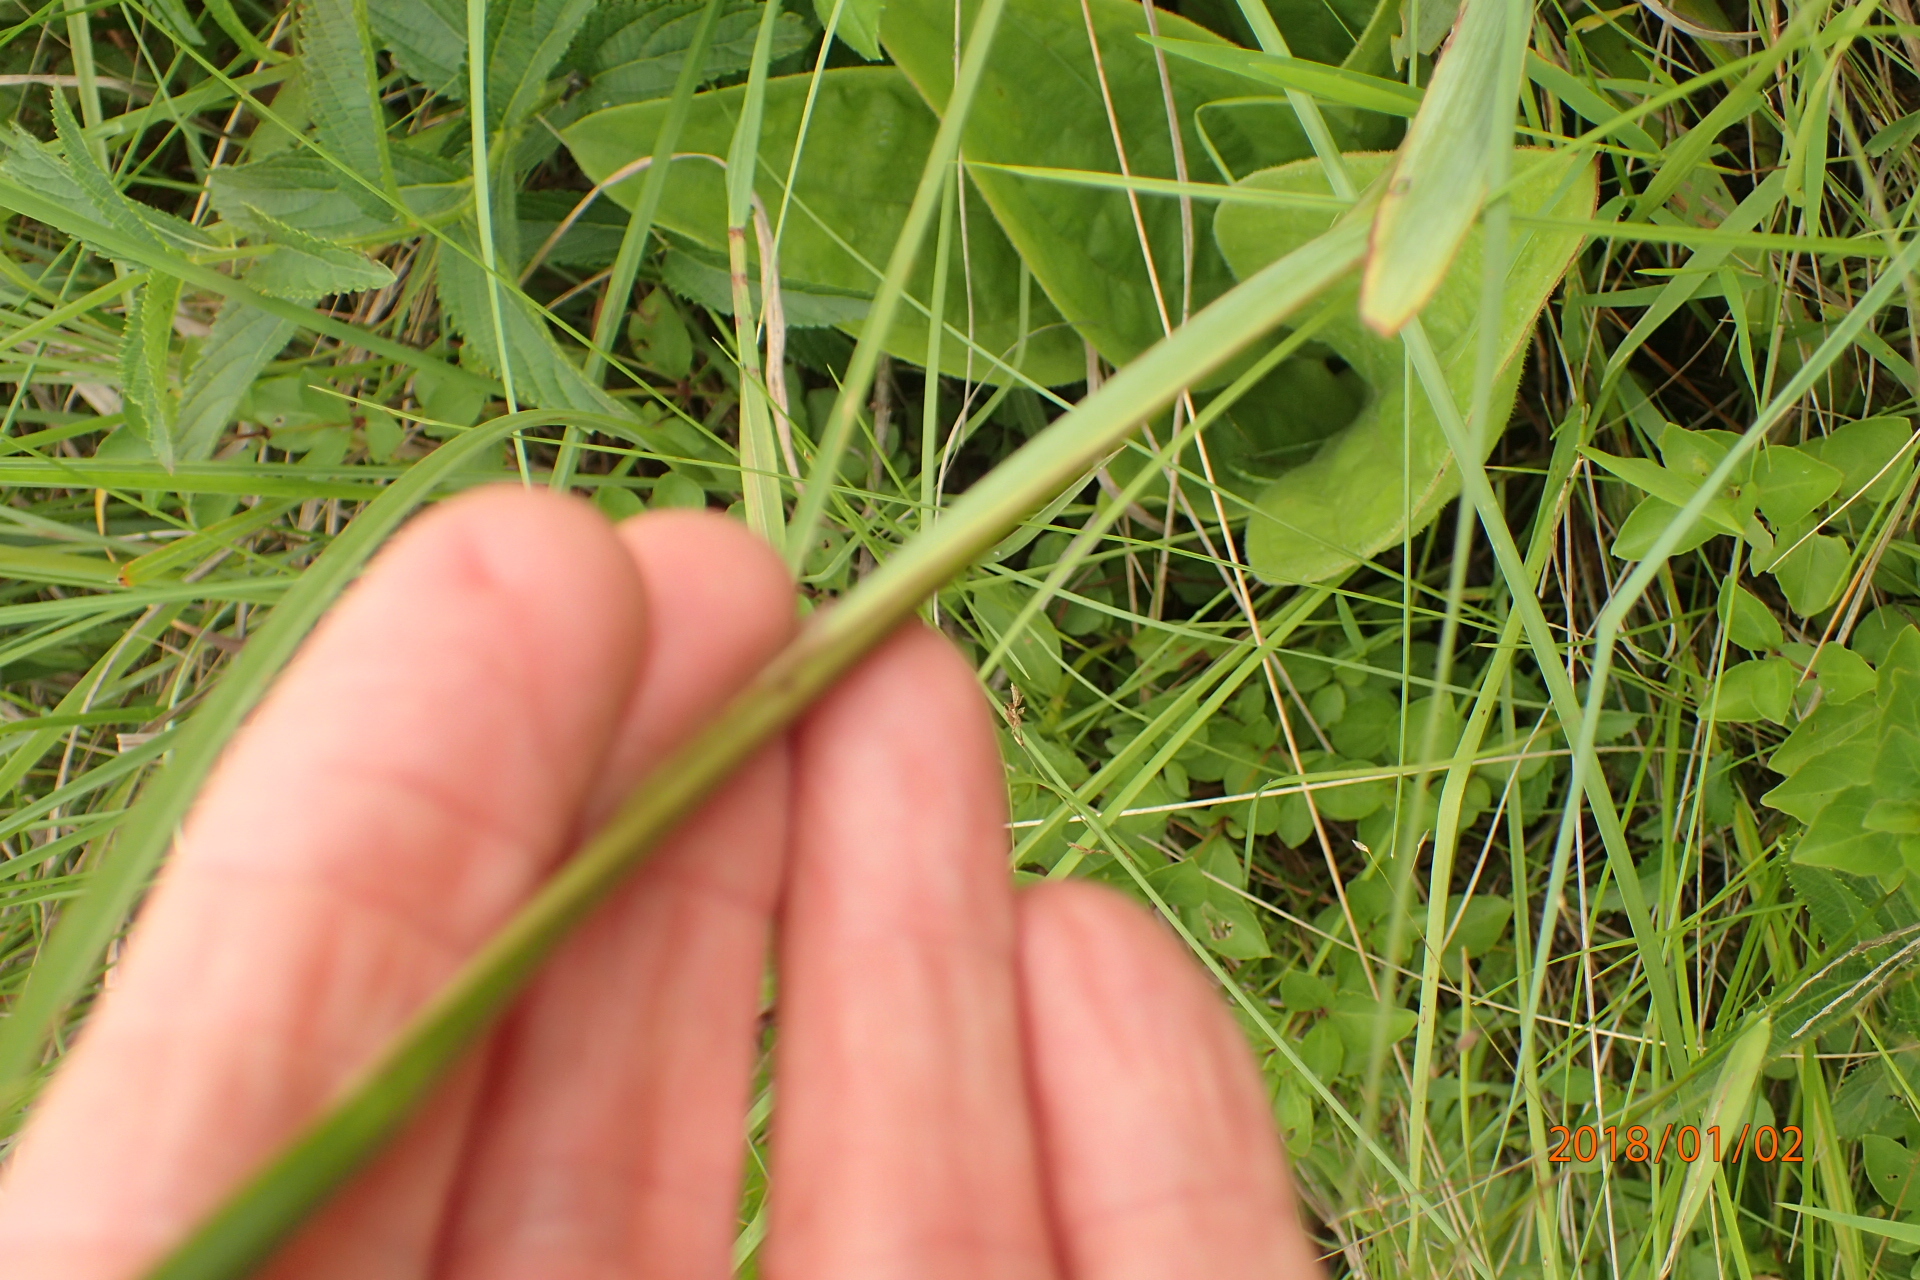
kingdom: Plantae
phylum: Tracheophyta
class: Liliopsida
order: Asparagales
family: Iridaceae
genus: Aristea
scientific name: Aristea ecklonii
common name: Blue corn-lily
